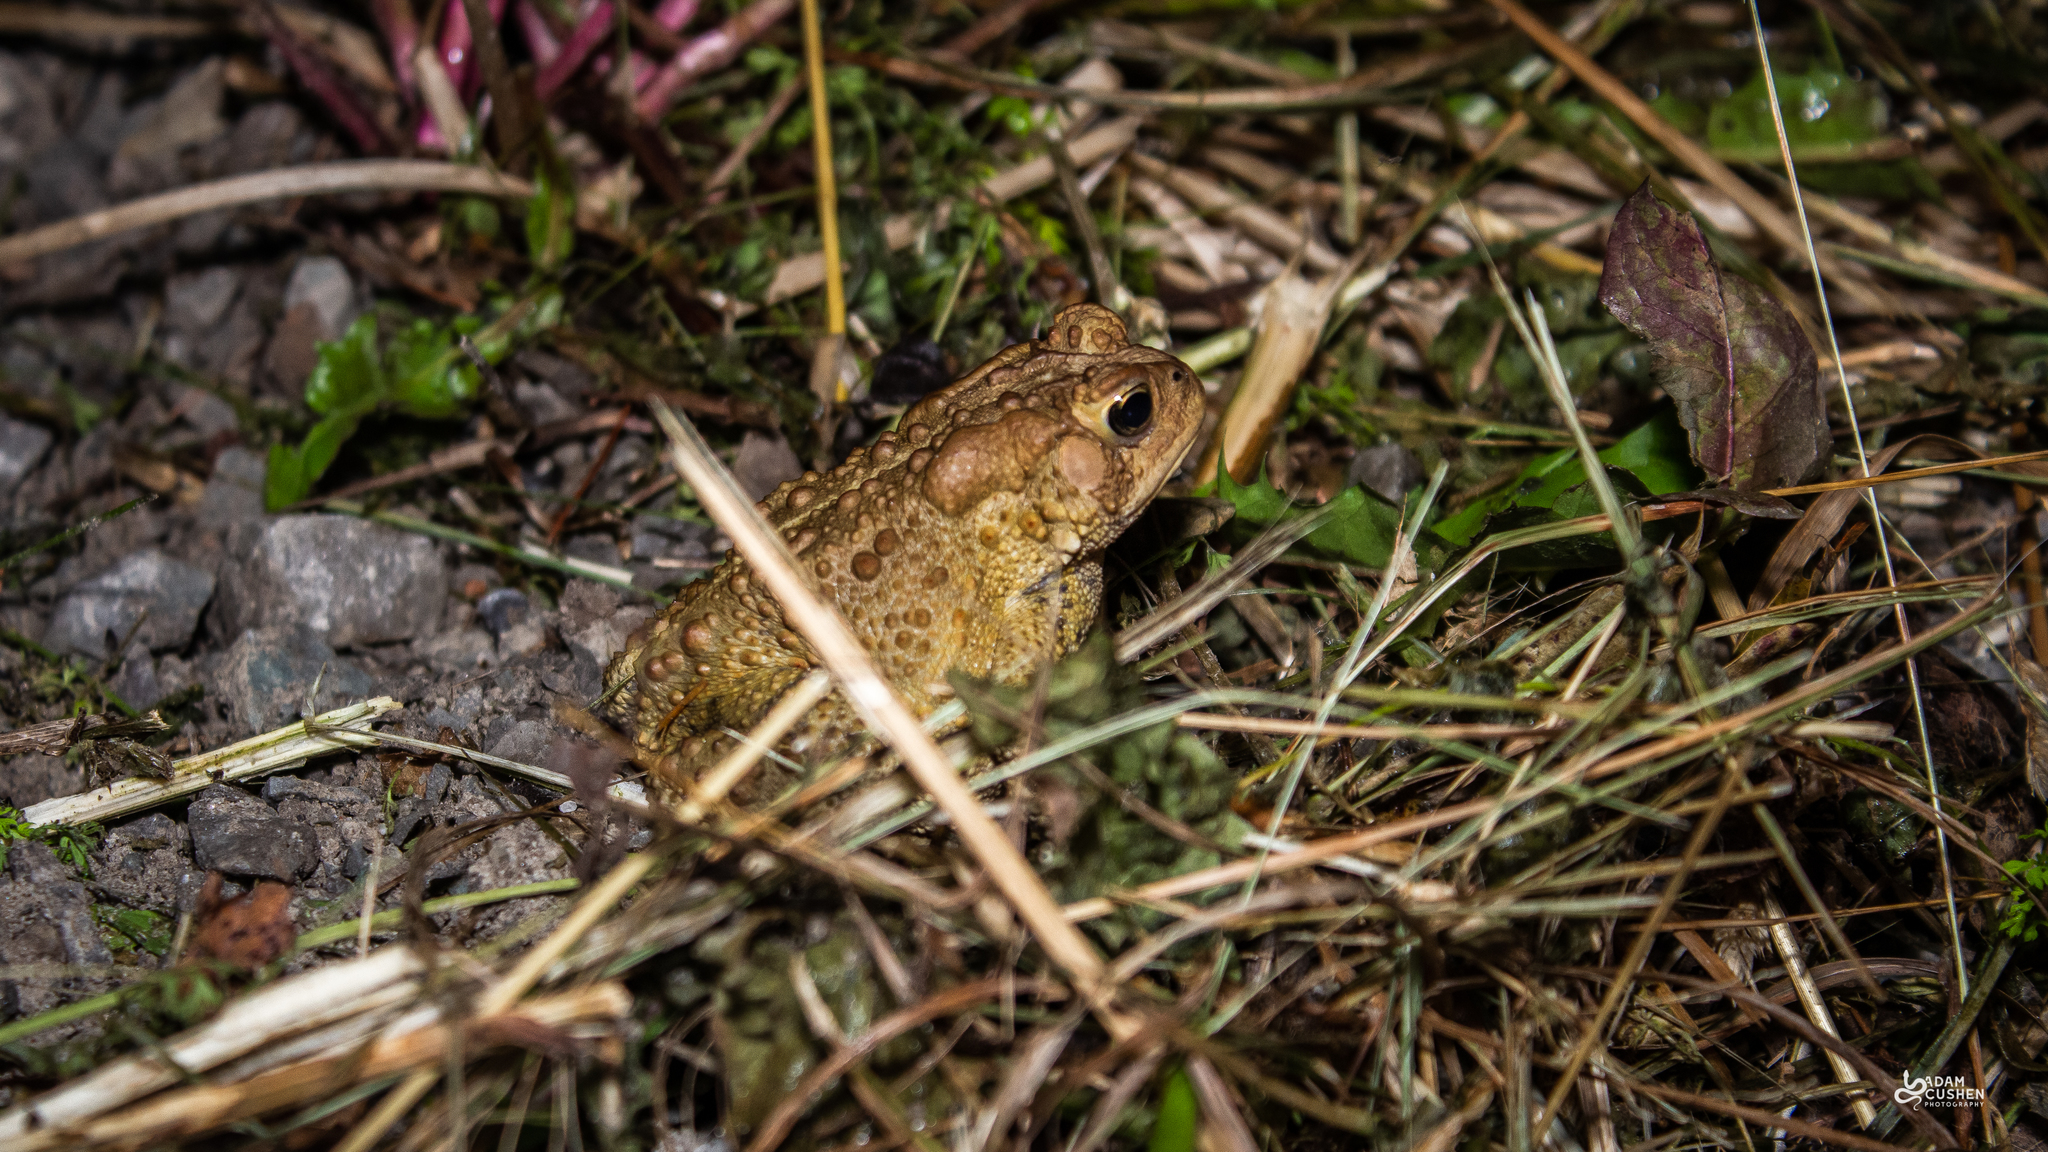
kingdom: Animalia
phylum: Chordata
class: Amphibia
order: Anura
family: Bufonidae
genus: Anaxyrus
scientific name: Anaxyrus americanus
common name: American toad
